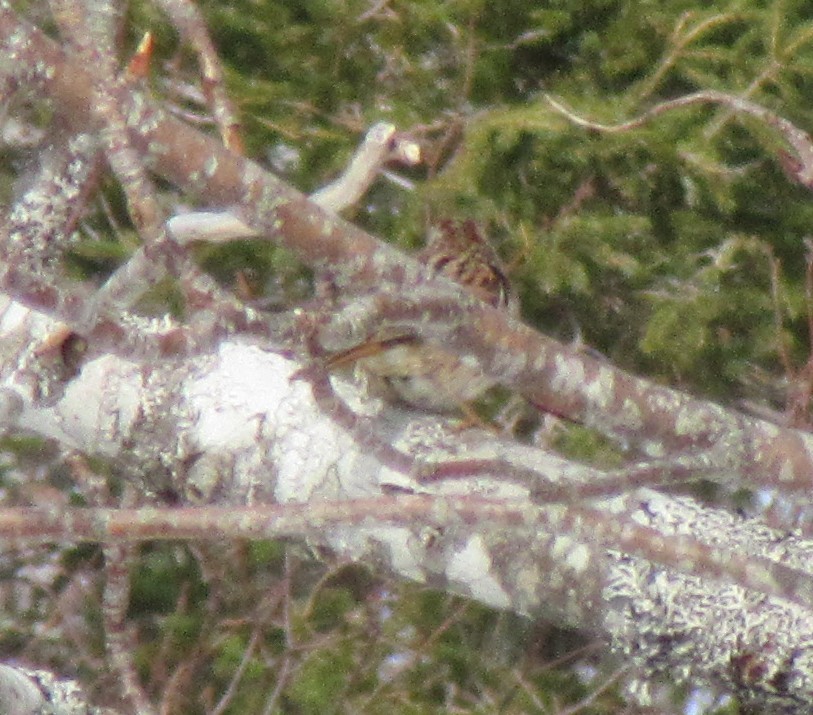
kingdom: Animalia
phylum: Chordata
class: Aves
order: Passeriformes
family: Passerellidae
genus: Melospiza
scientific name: Melospiza melodia
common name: Song sparrow
